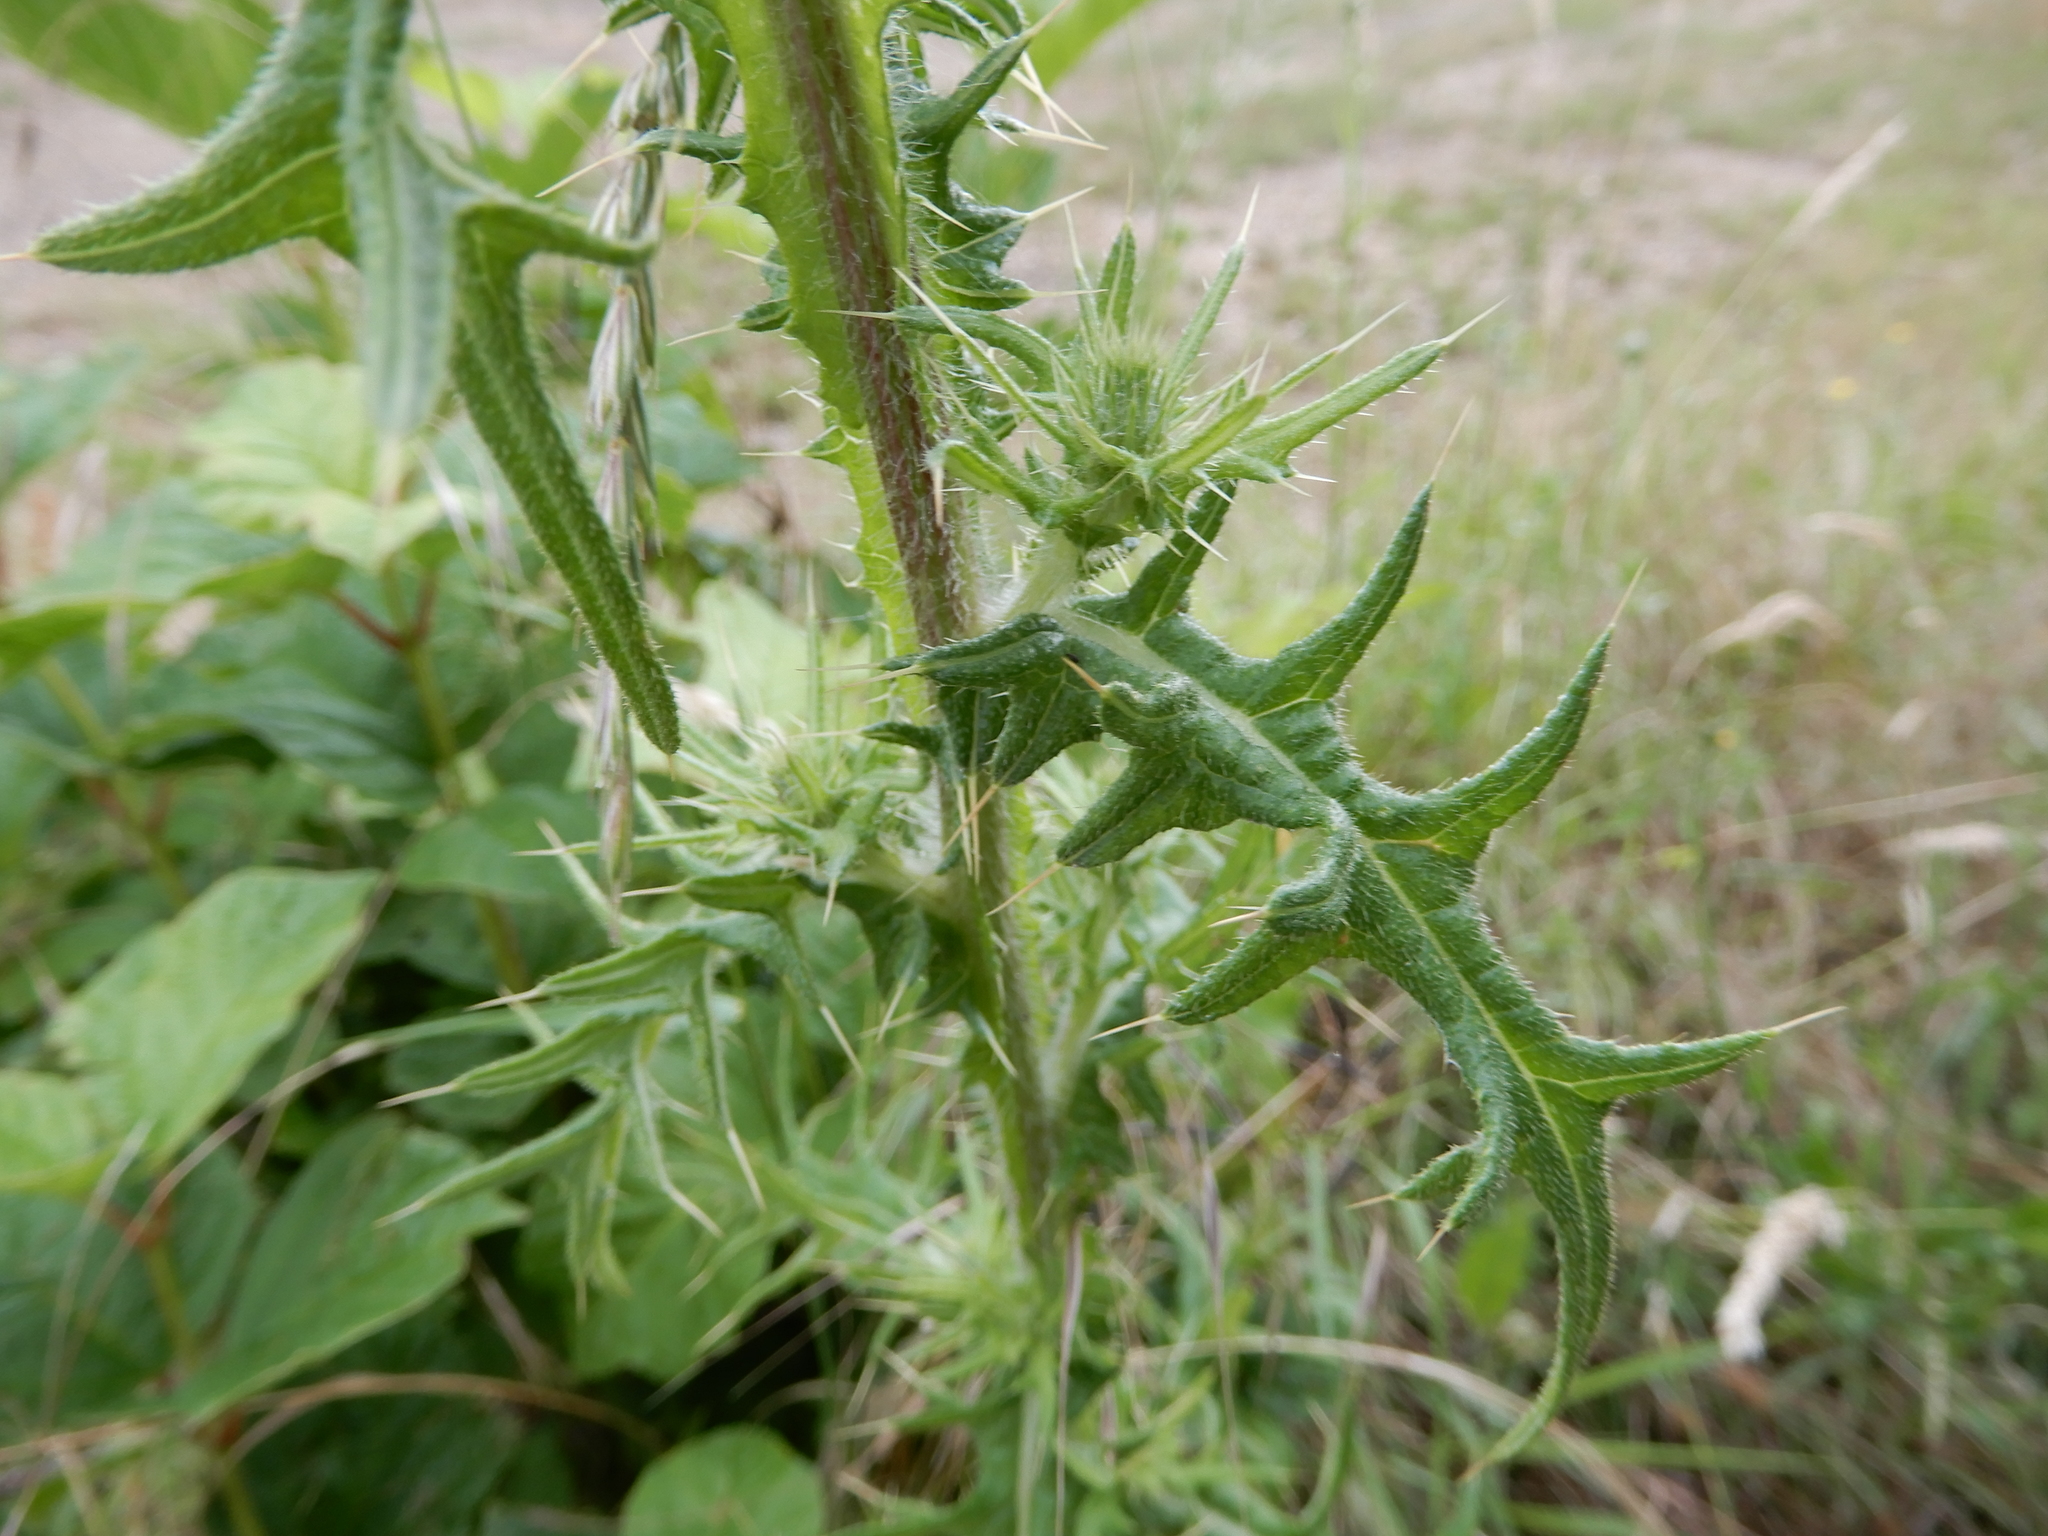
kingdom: Plantae
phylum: Tracheophyta
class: Magnoliopsida
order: Asterales
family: Asteraceae
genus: Cirsium
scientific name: Cirsium vulgare
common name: Bull thistle
